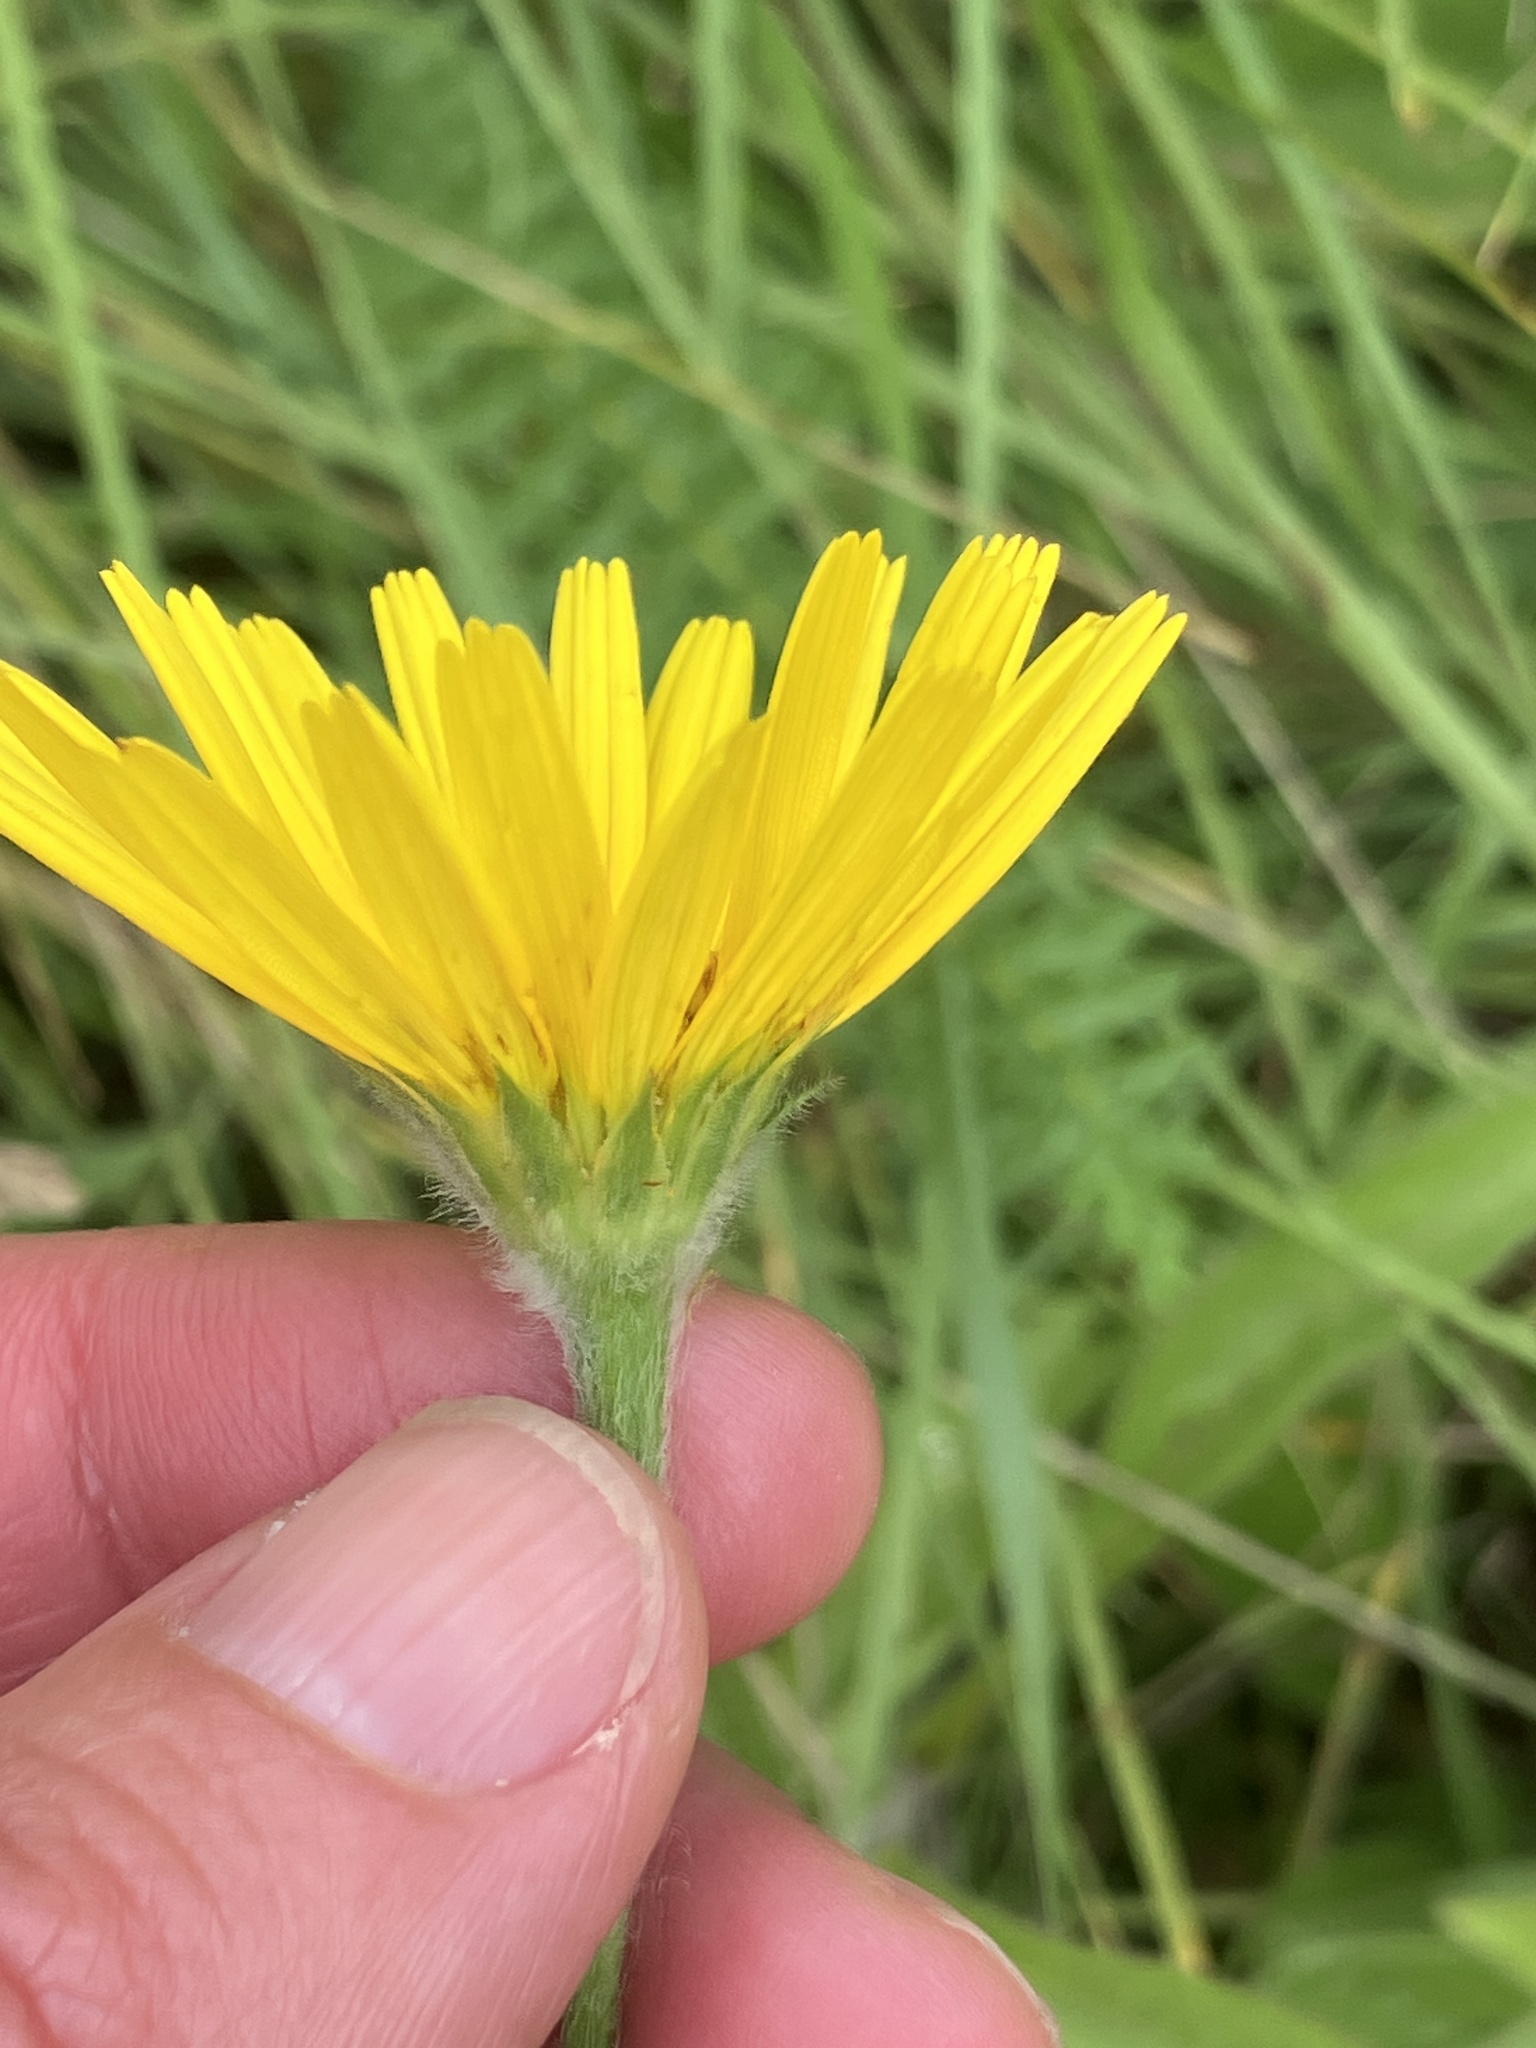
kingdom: Plantae
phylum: Tracheophyta
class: Magnoliopsida
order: Asterales
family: Asteraceae
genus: Buphthalmum
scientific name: Buphthalmum salicifolium
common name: Willow-leaved yellow-oxeye
